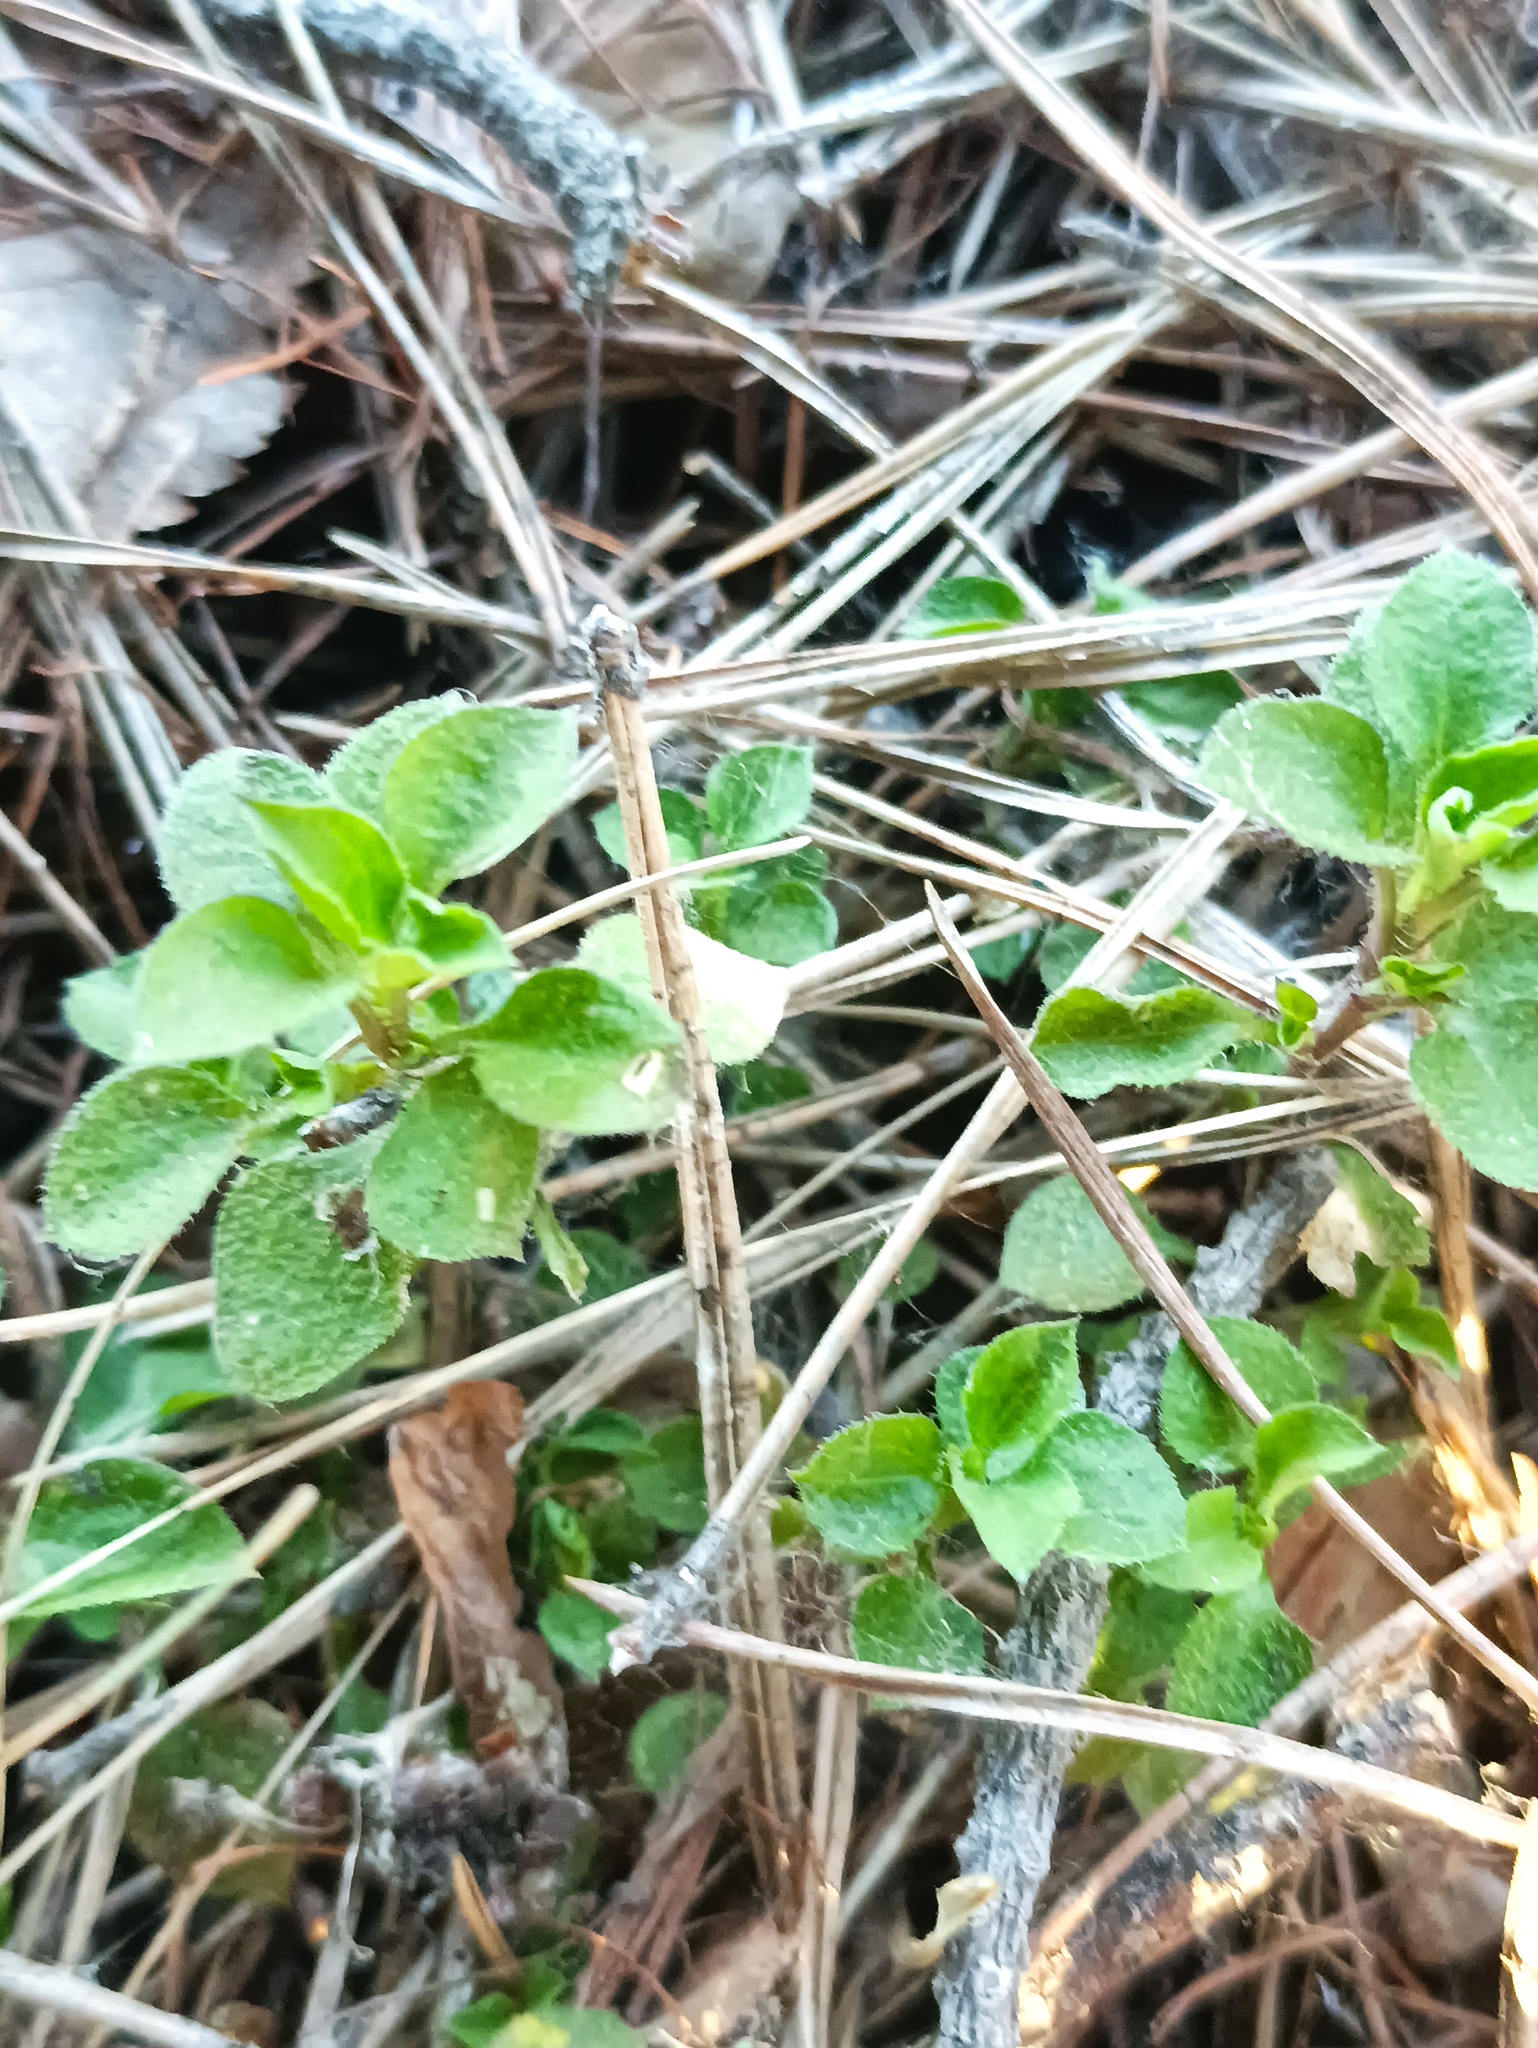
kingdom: Plantae
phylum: Tracheophyta
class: Magnoliopsida
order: Caryophyllales
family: Caryophyllaceae
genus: Moehringia
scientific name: Moehringia trinervia
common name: Three-nerved sandwort
